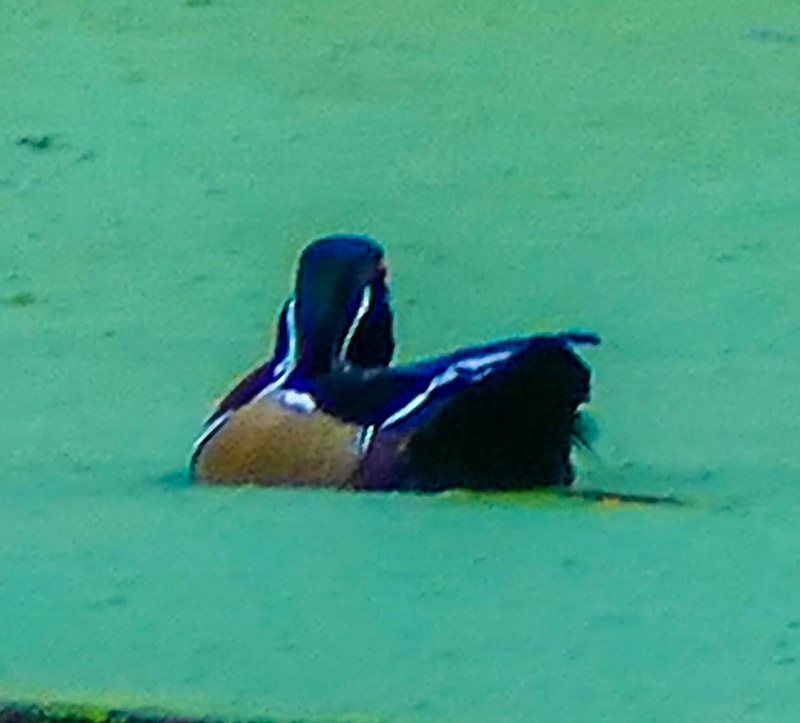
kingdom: Animalia
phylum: Chordata
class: Aves
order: Anseriformes
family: Anatidae
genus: Aix
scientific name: Aix sponsa
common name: Wood duck
